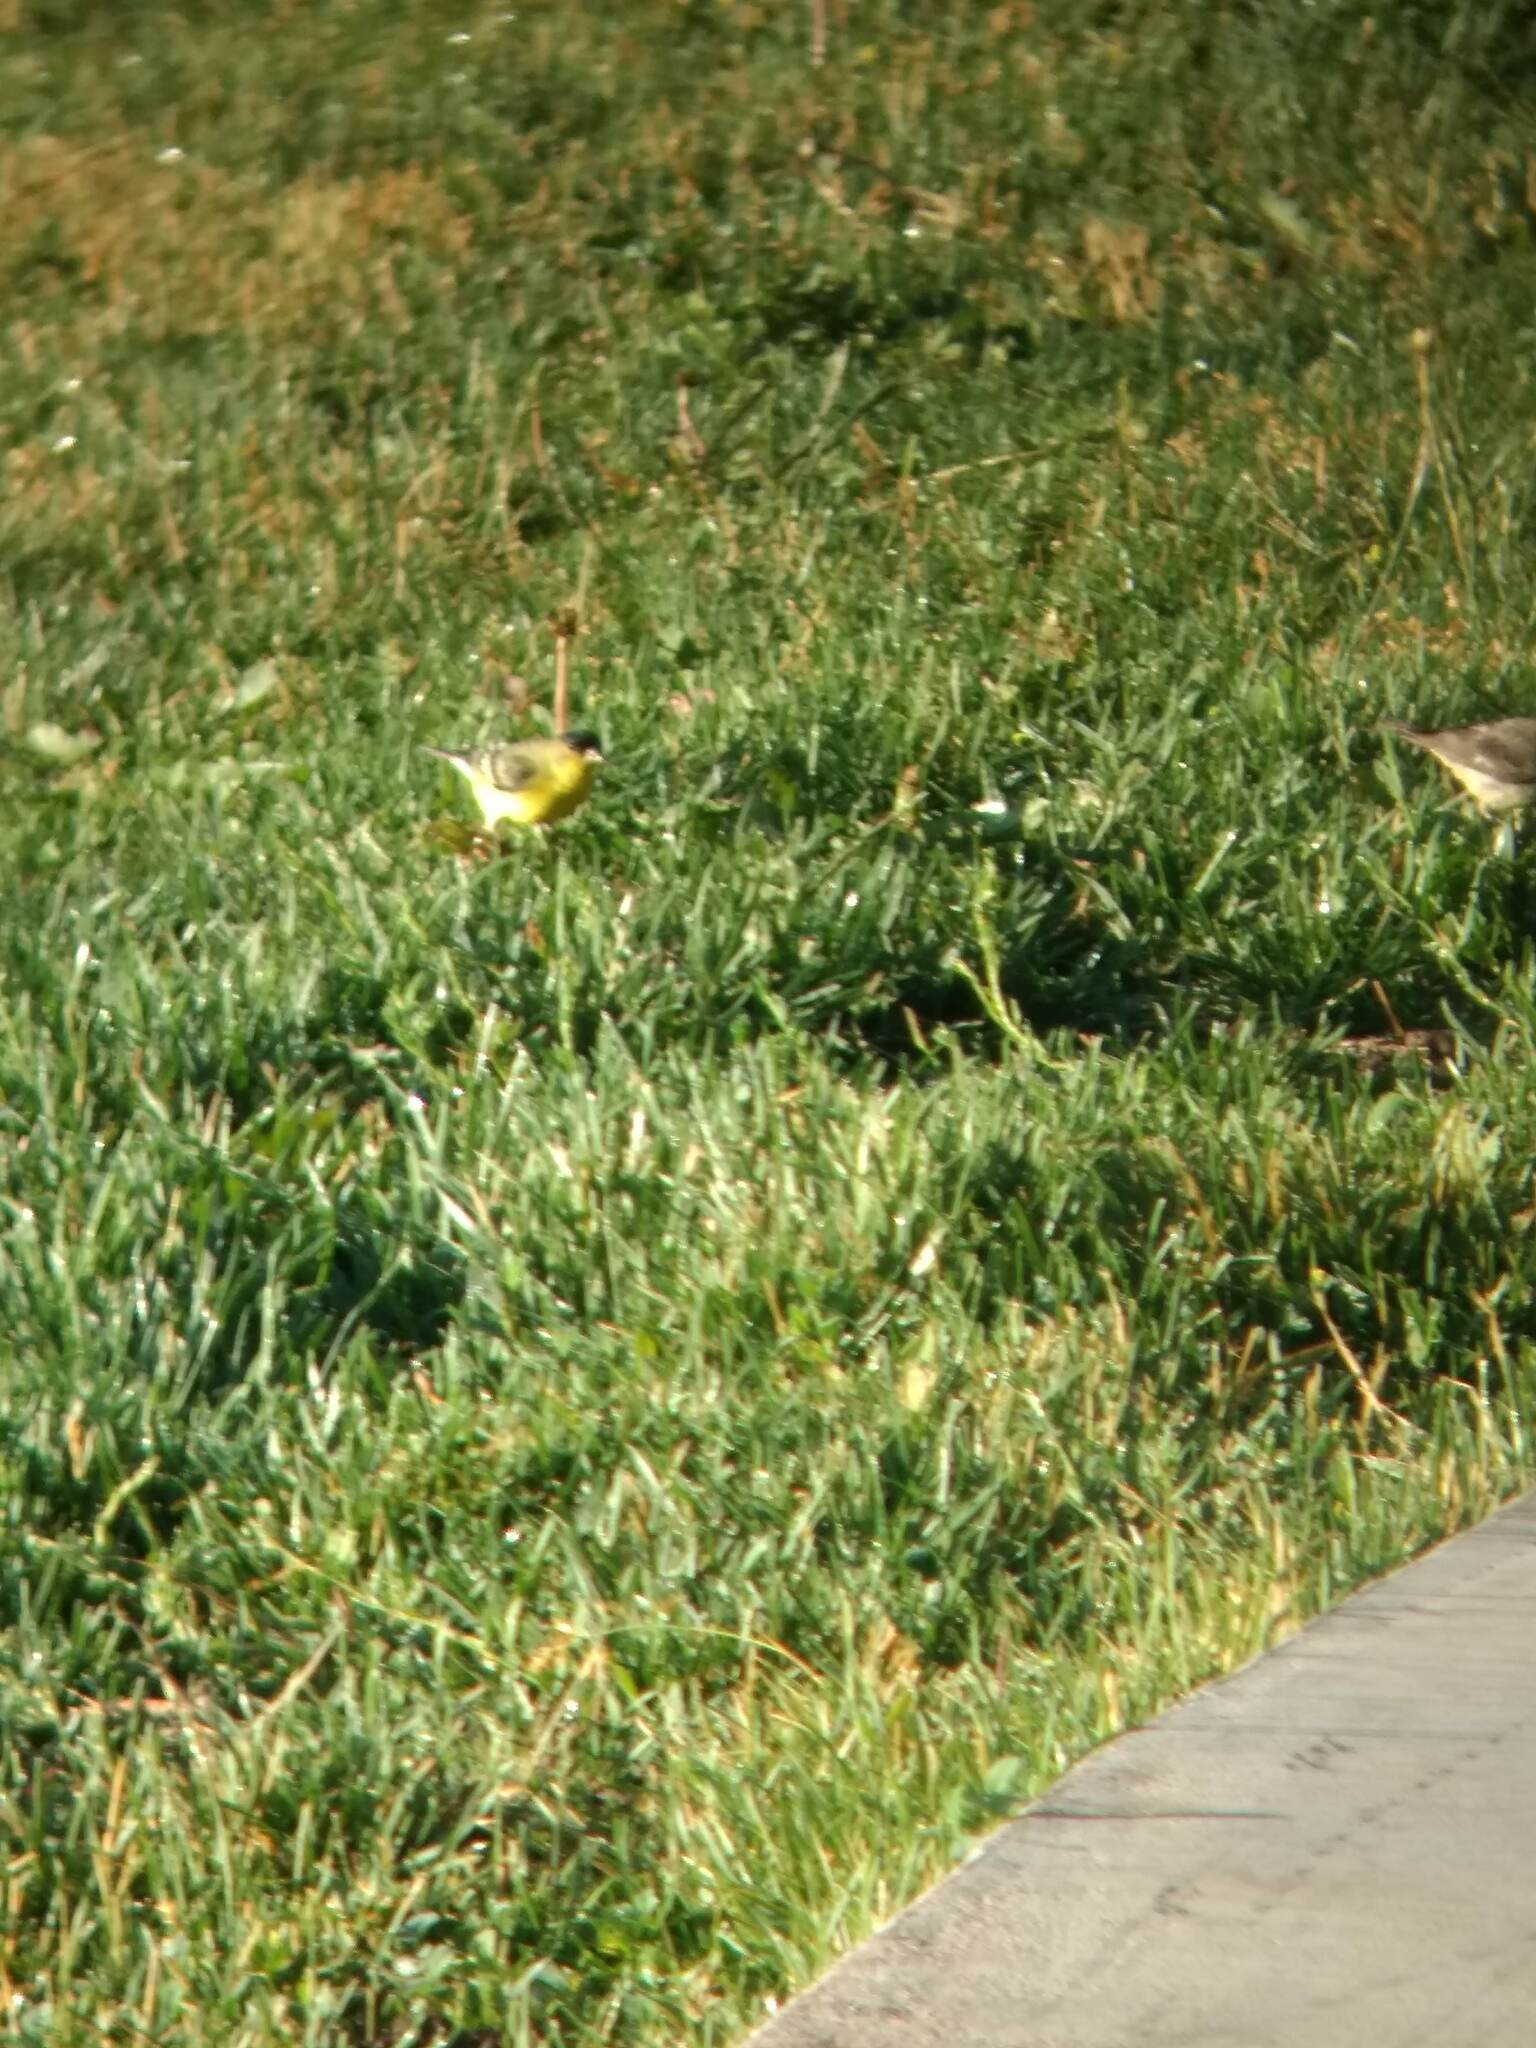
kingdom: Animalia
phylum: Chordata
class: Aves
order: Passeriformes
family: Fringillidae
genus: Spinus
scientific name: Spinus psaltria
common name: Lesser goldfinch
